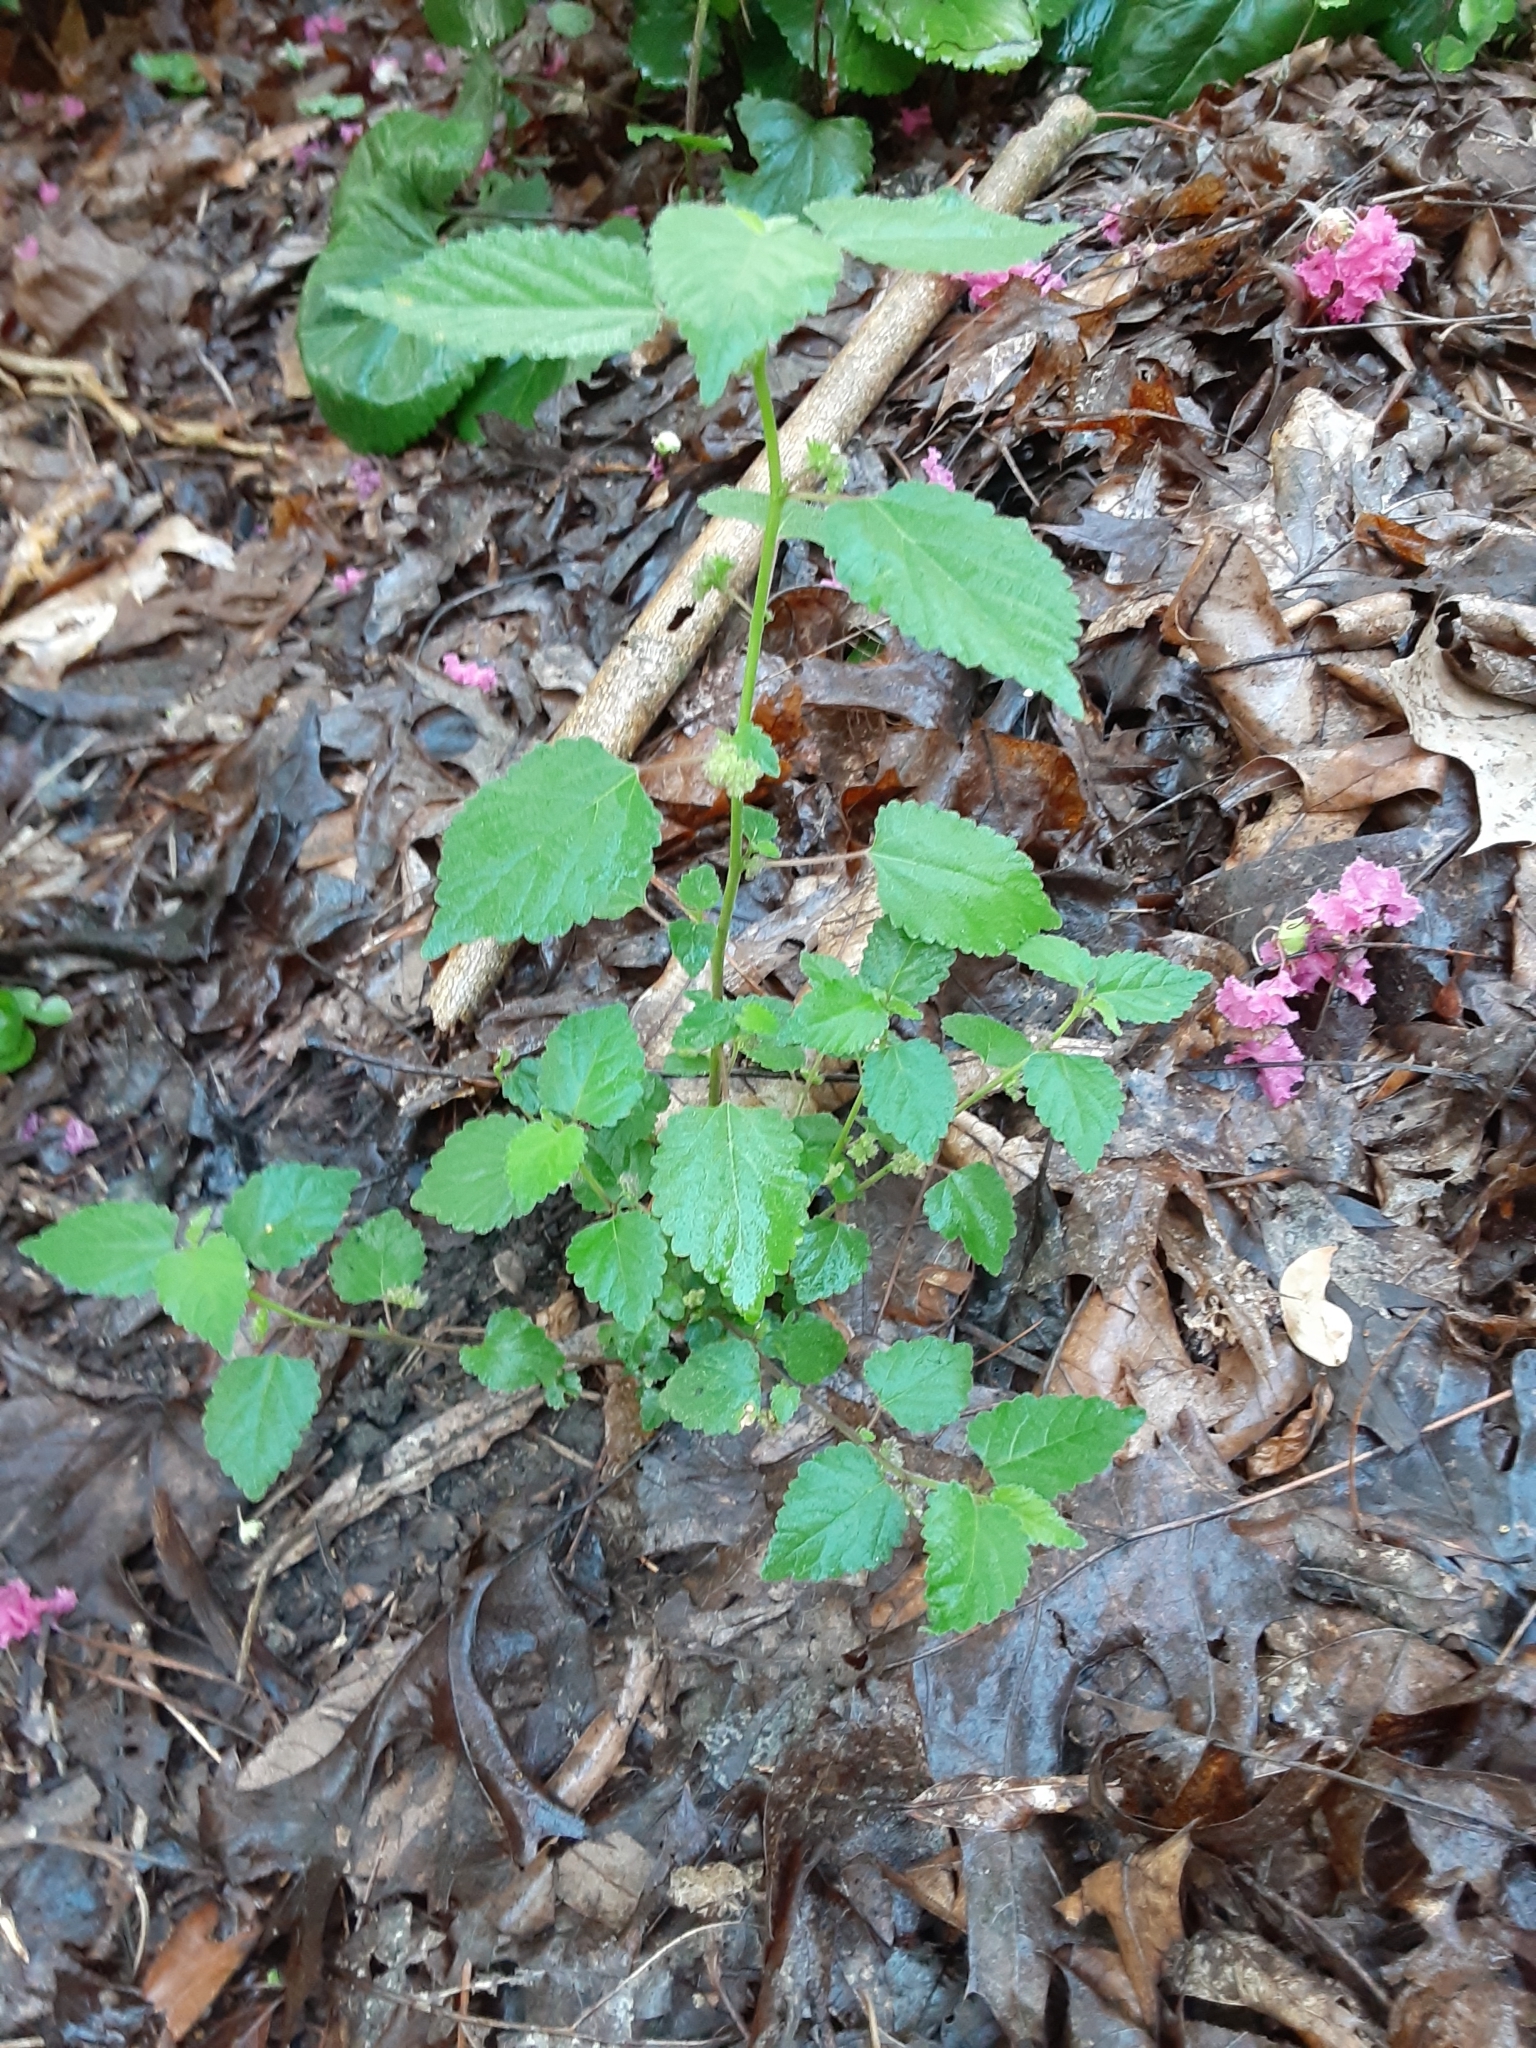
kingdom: Plantae
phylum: Tracheophyta
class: Magnoliopsida
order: Rosales
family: Moraceae
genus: Fatoua
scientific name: Fatoua villosa
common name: Hairy crabweed
